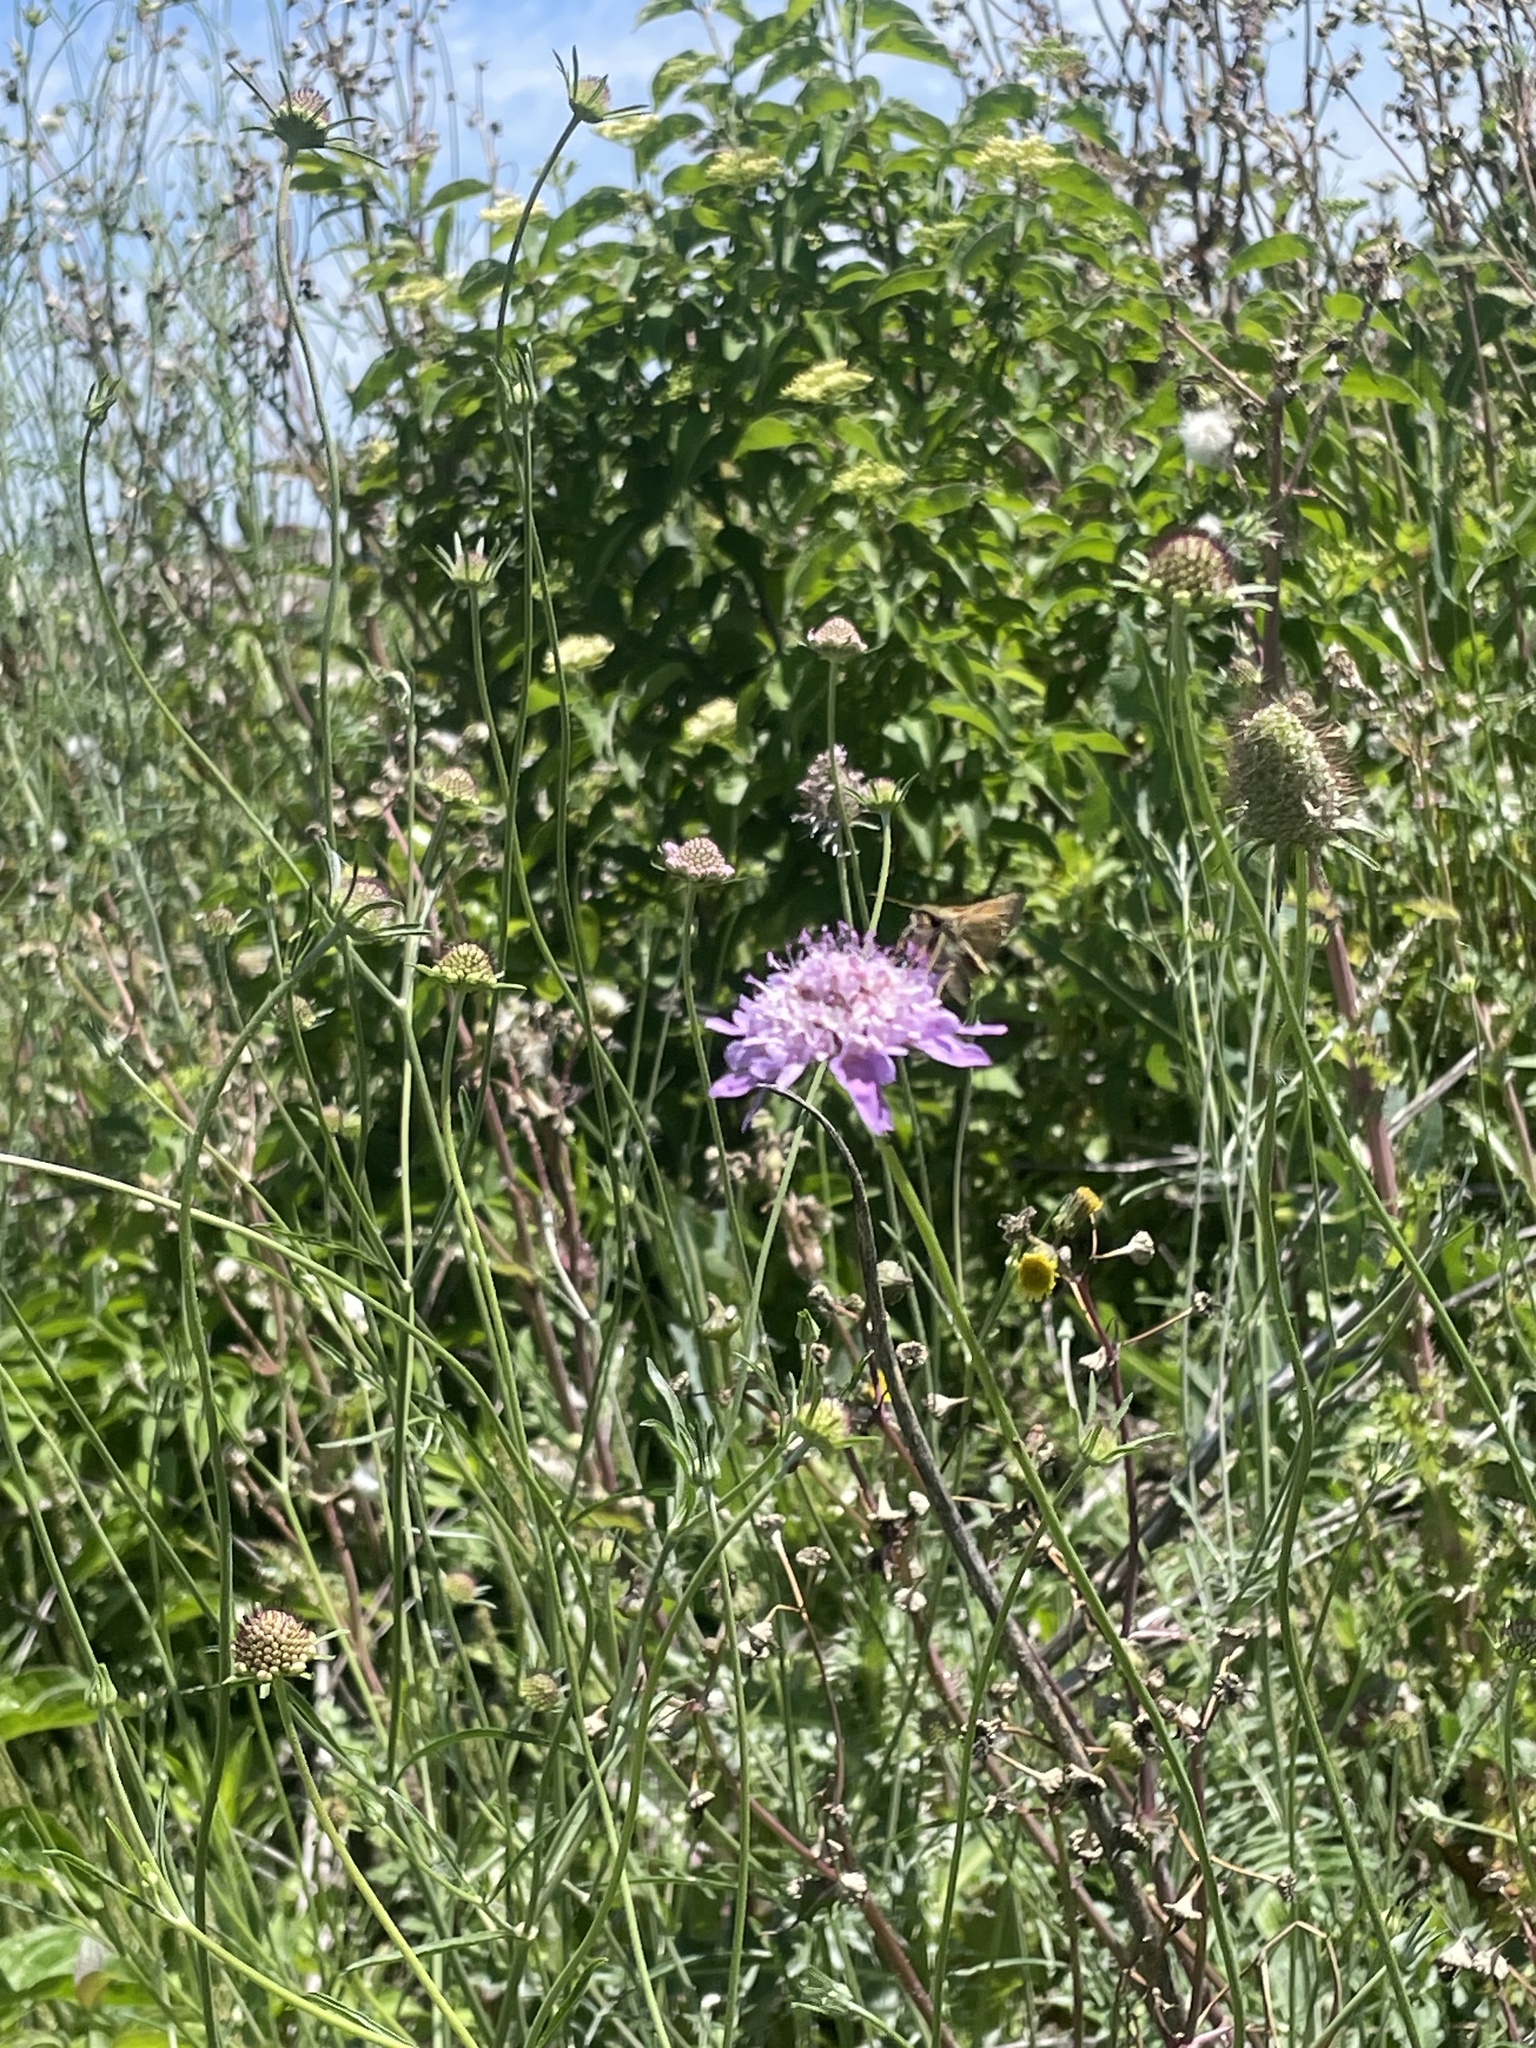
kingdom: Plantae
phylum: Tracheophyta
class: Magnoliopsida
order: Dipsacales
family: Caprifoliaceae
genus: Sixalix
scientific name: Sixalix atropurpurea
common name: Sweet scabious
